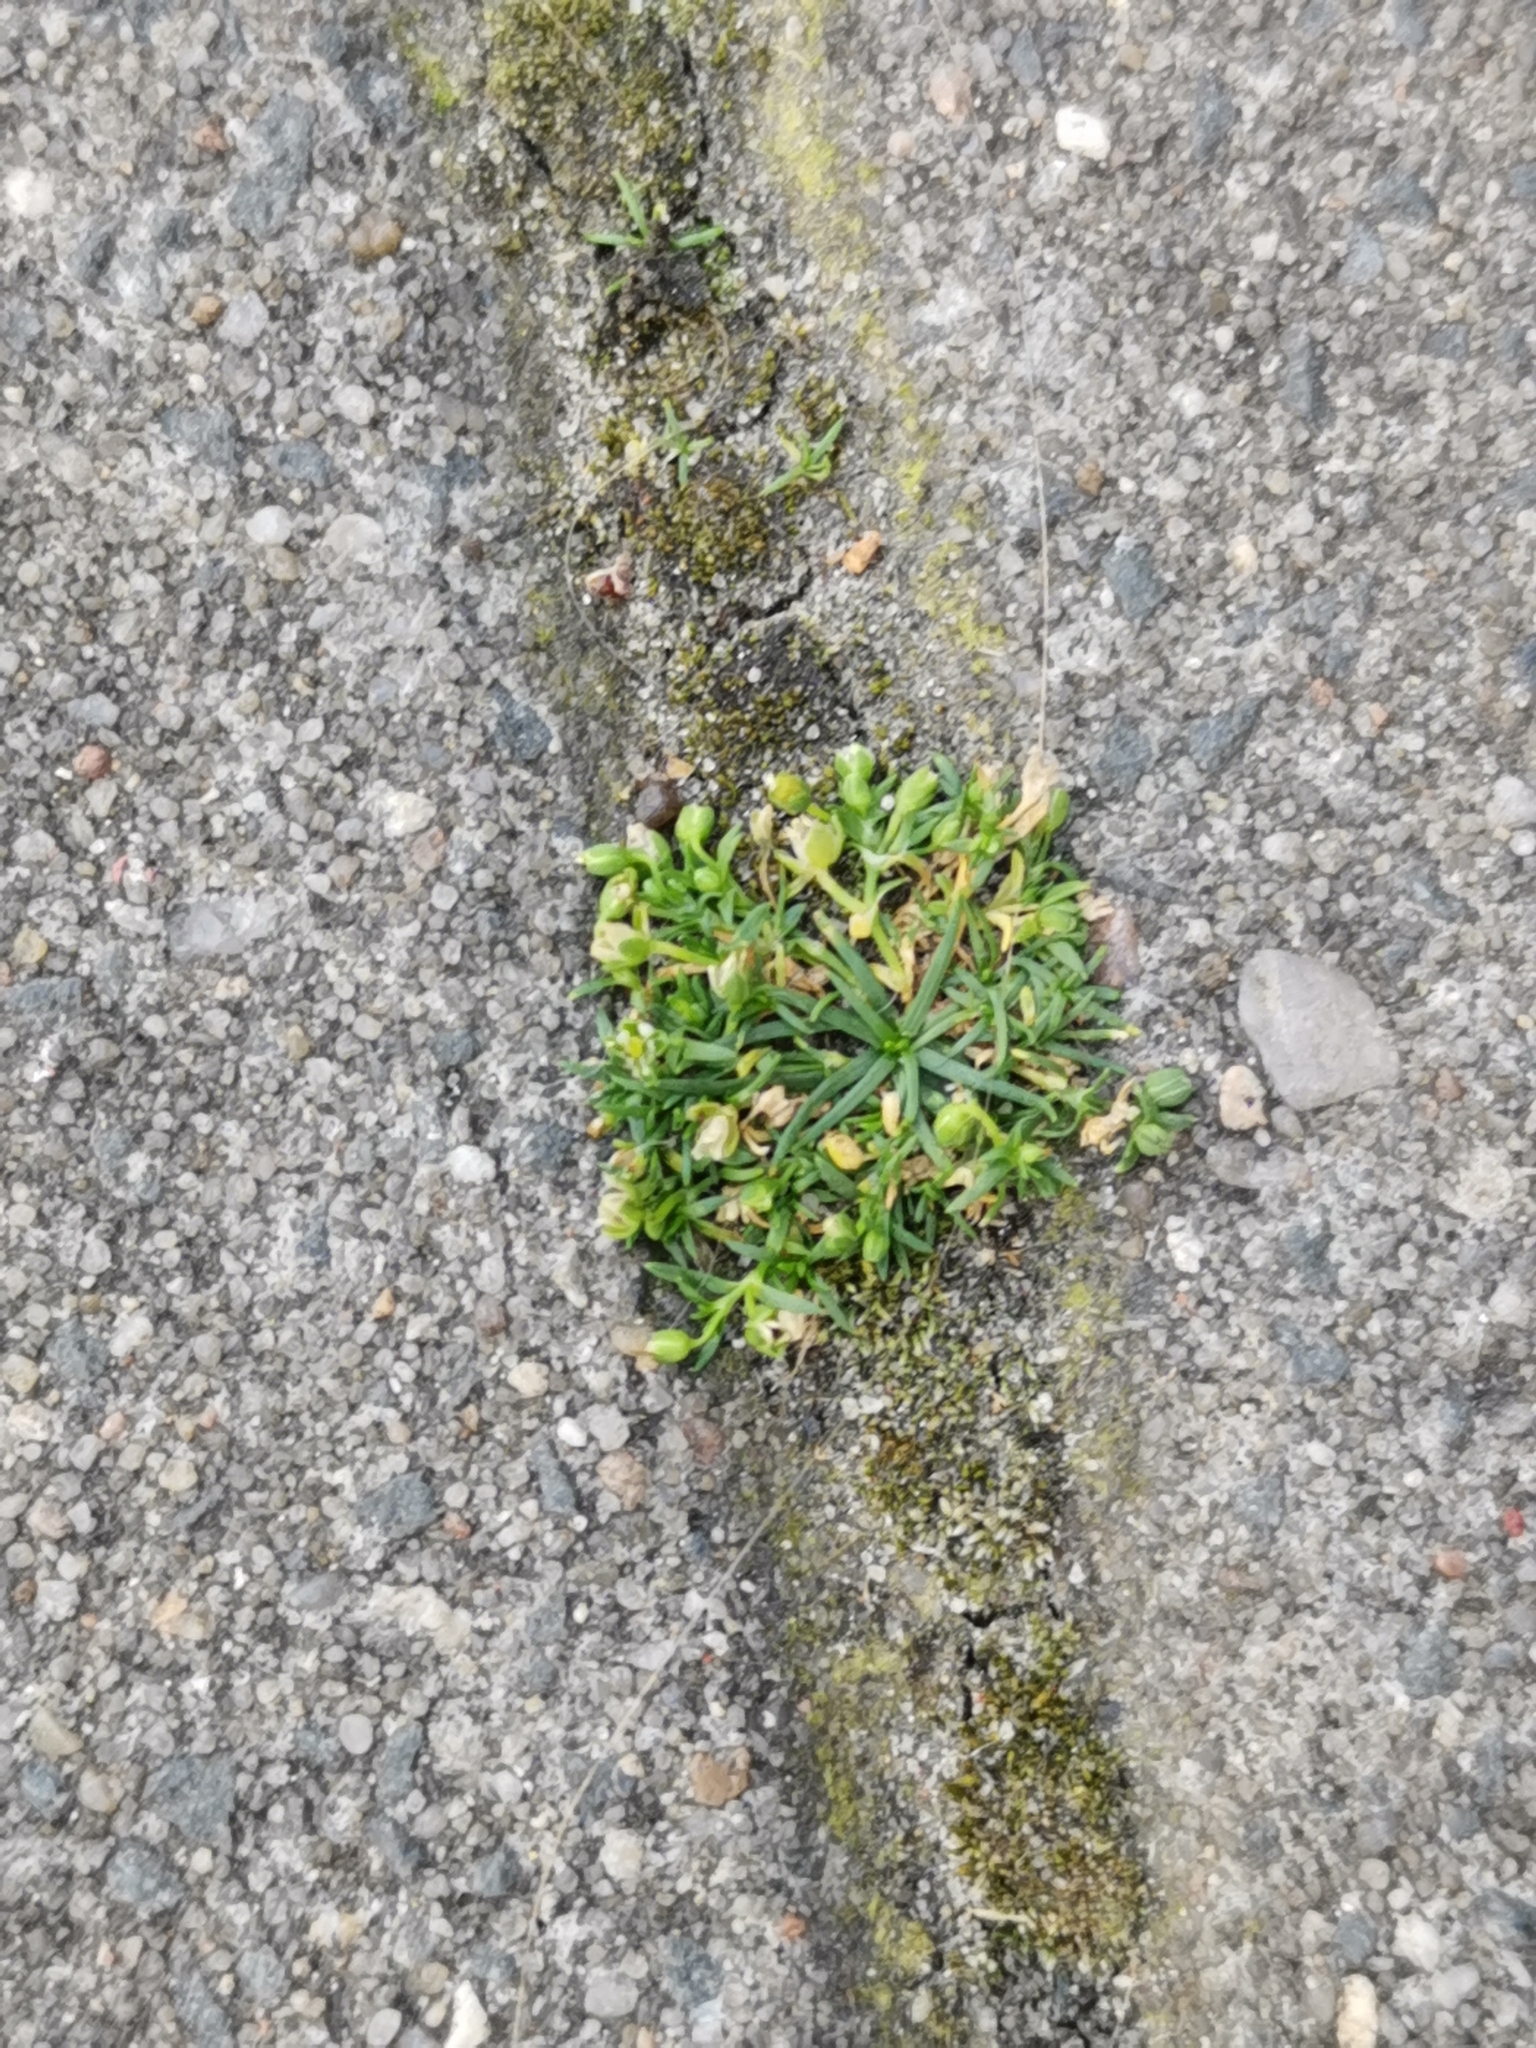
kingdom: Plantae
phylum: Tracheophyta
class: Magnoliopsida
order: Caryophyllales
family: Caryophyllaceae
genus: Sagina
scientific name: Sagina procumbens
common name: Procumbent pearlwort
